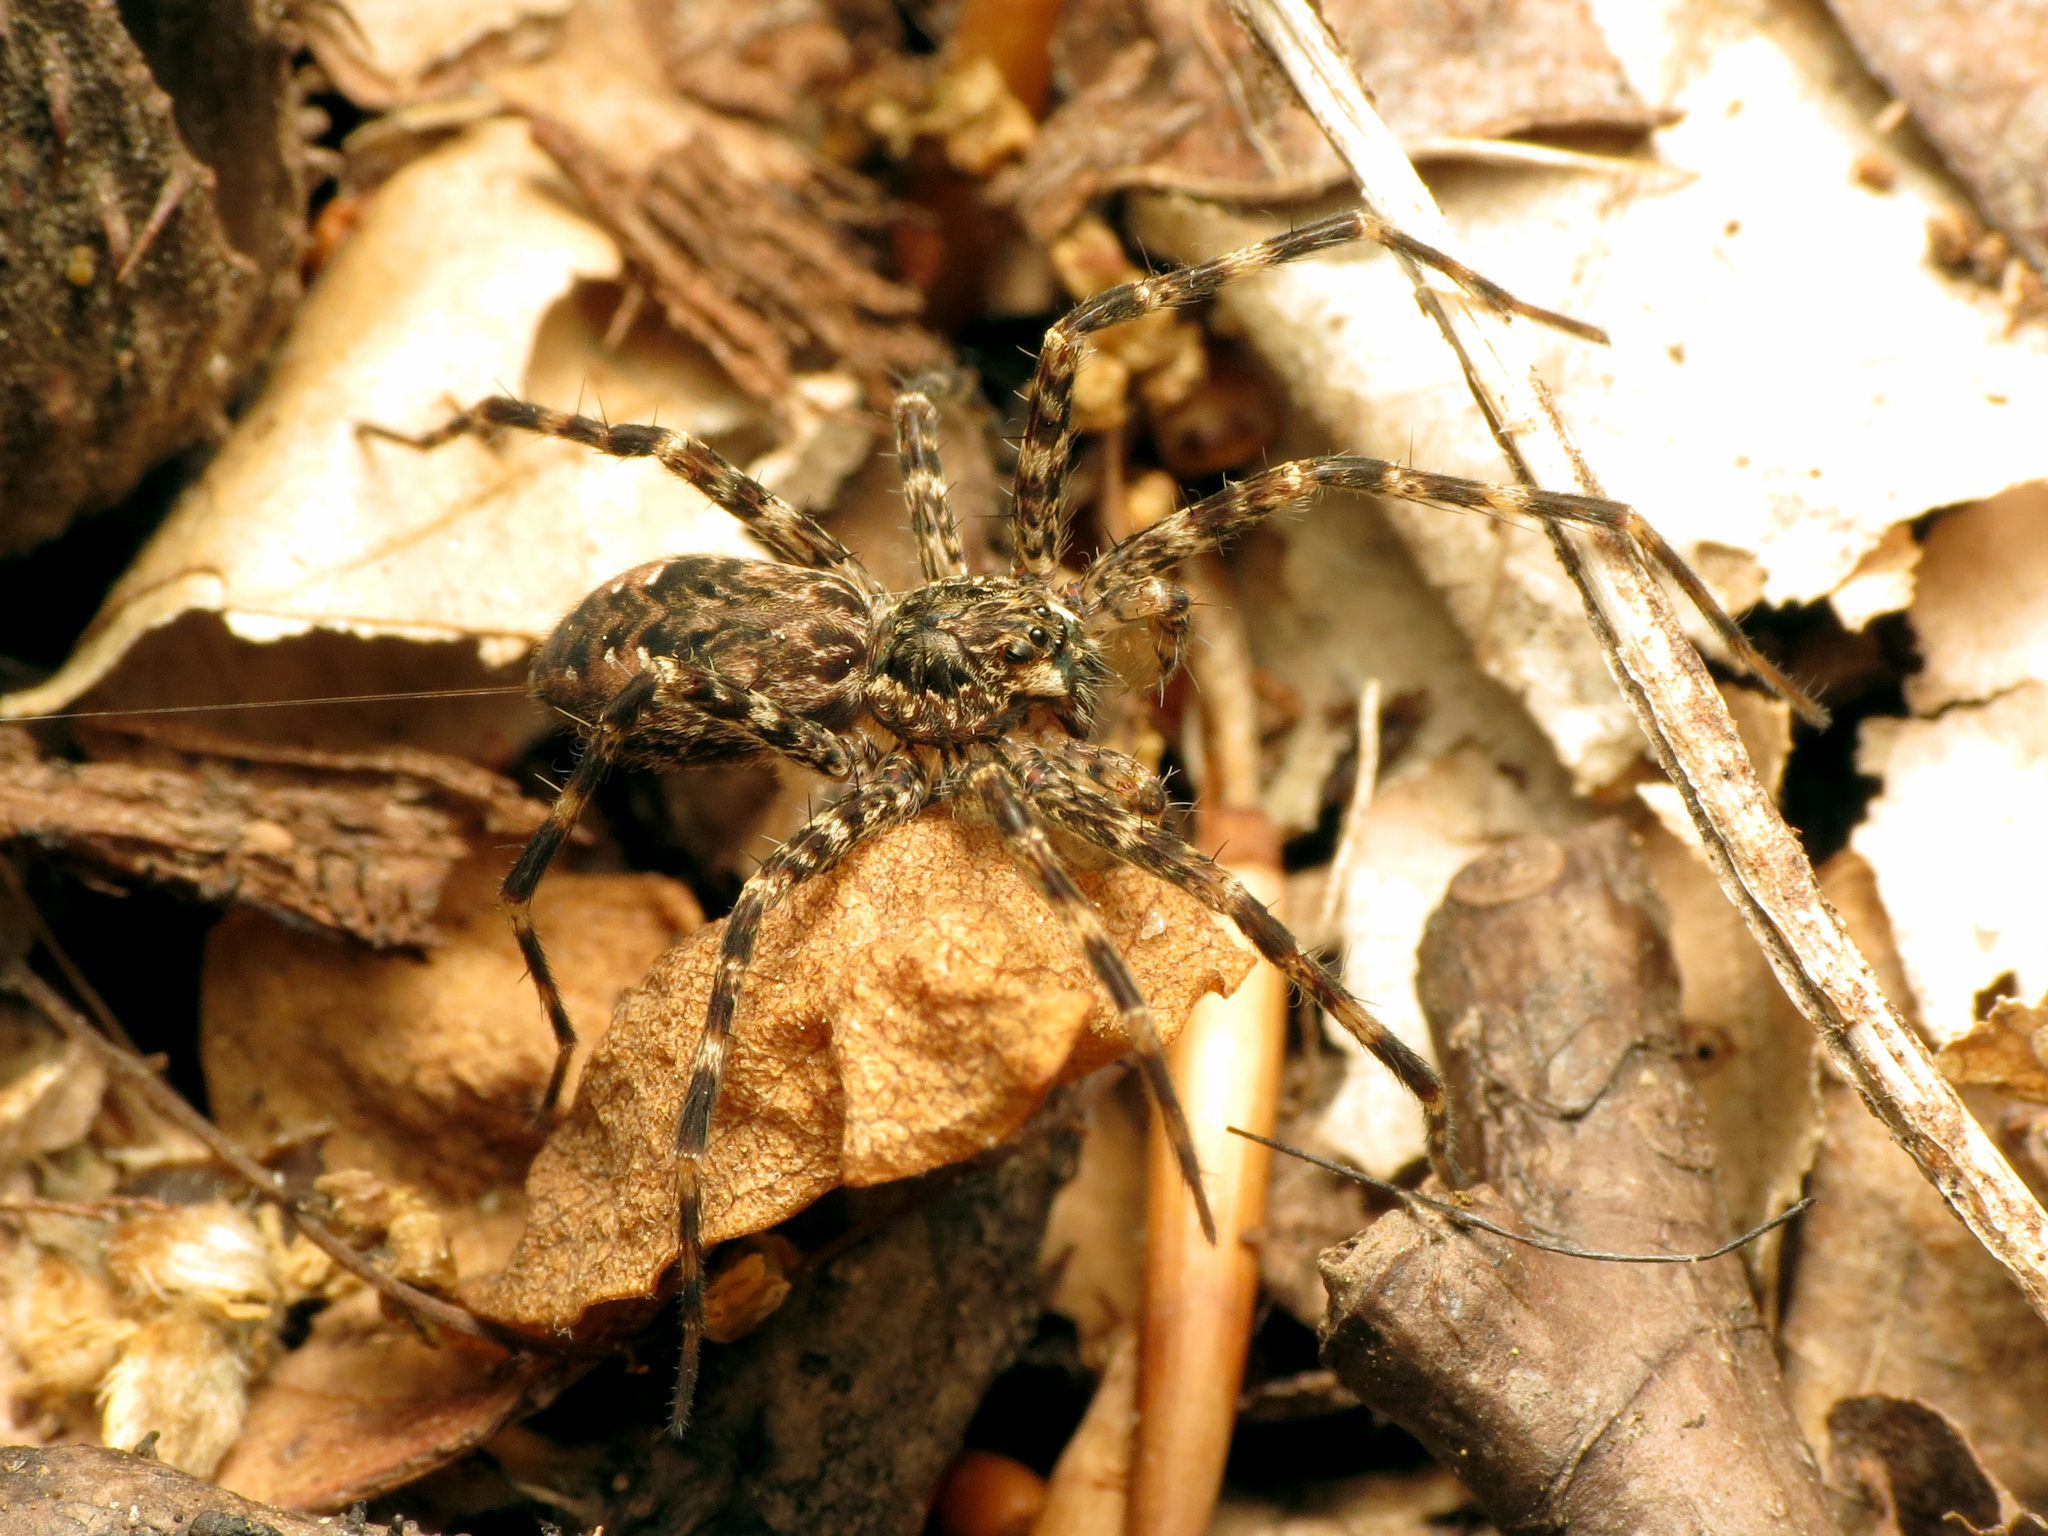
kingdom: Animalia
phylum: Arthropoda
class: Arachnida
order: Araneae
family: Pisauridae
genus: Dolomedes
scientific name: Dolomedes tenebrosus
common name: Dark fishing spider
